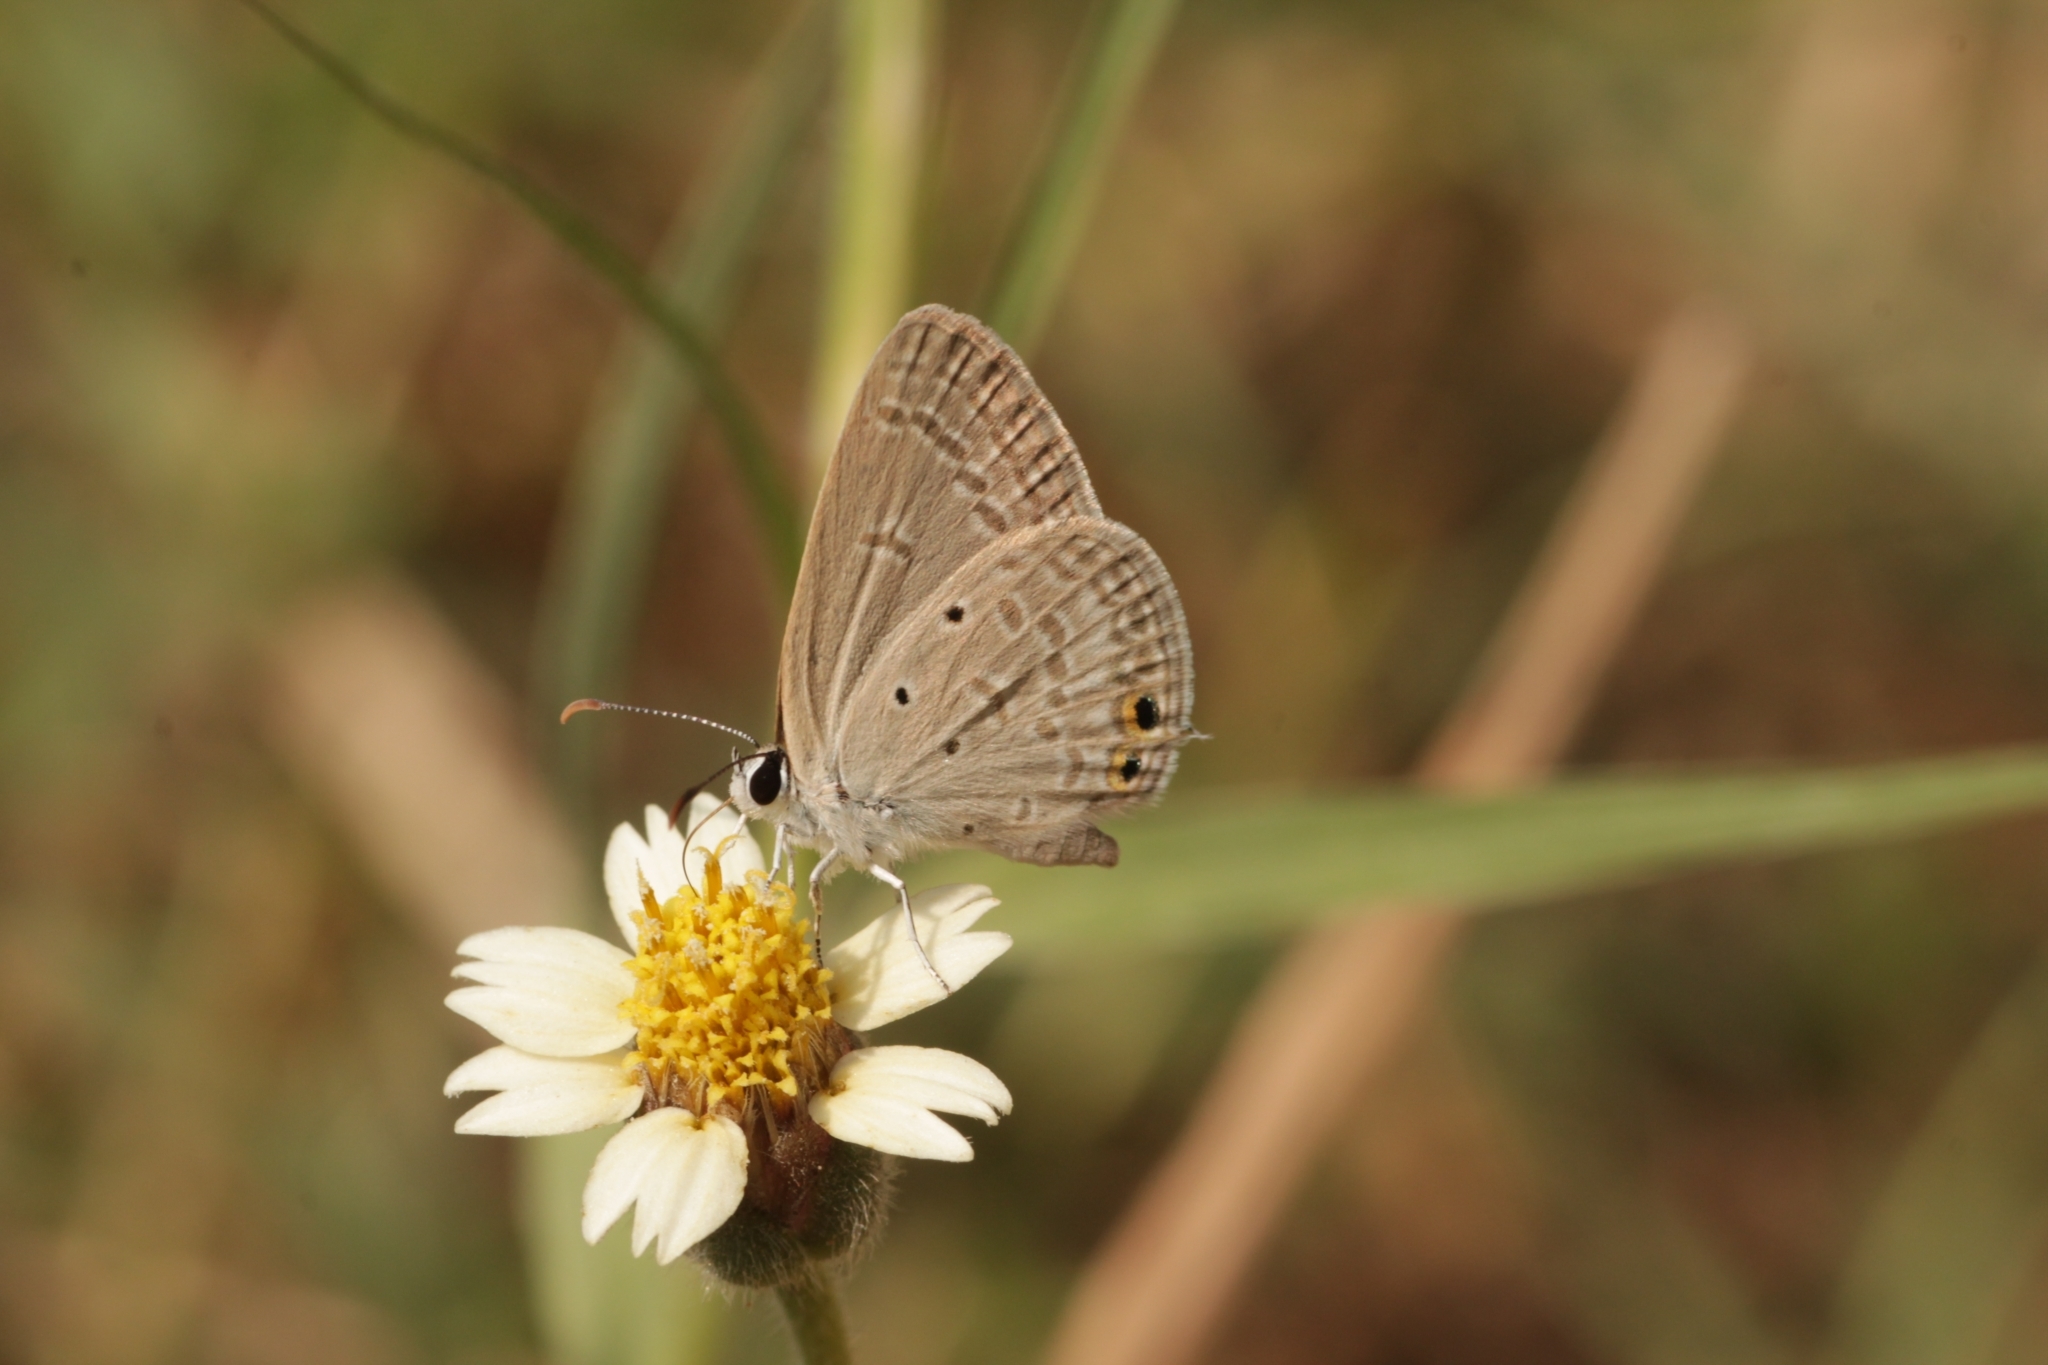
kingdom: Animalia
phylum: Arthropoda
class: Insecta
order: Lepidoptera
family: Lycaenidae
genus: Euchrysops
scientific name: Euchrysops cnejus
